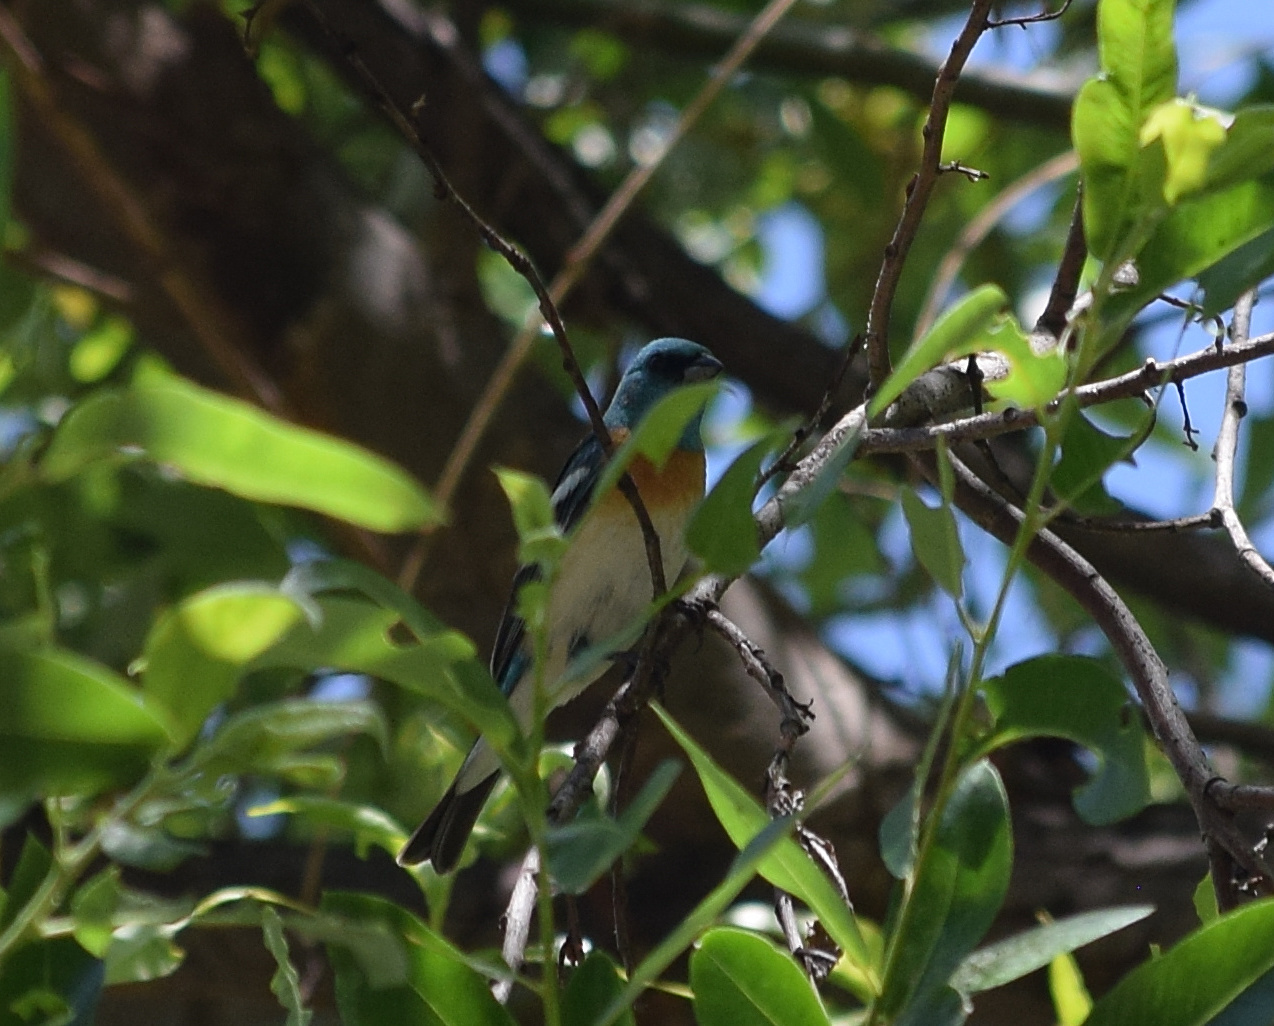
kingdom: Animalia
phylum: Chordata
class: Aves
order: Passeriformes
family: Cardinalidae
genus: Passerina
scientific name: Passerina amoena
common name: Lazuli bunting
